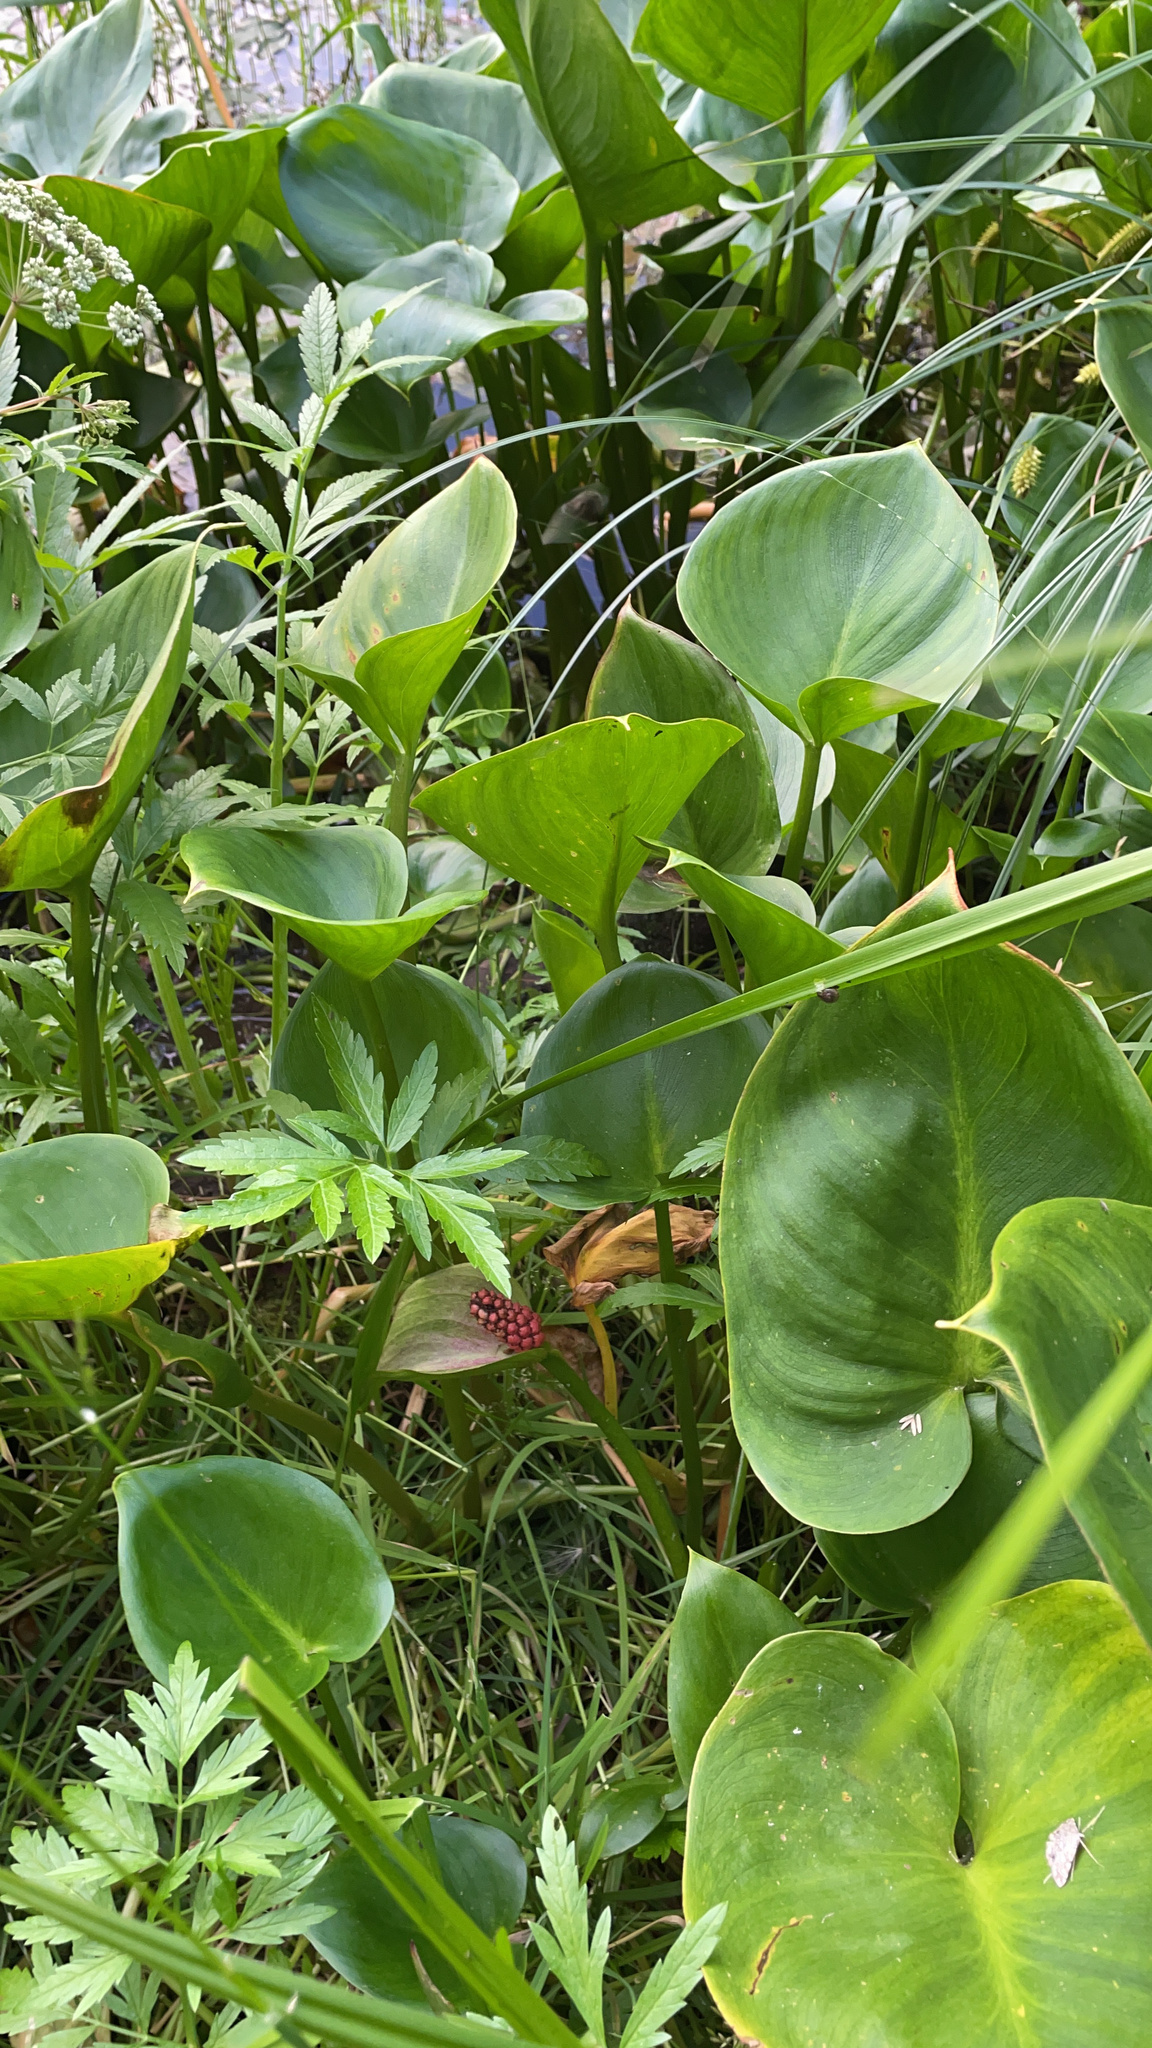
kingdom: Plantae
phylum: Tracheophyta
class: Liliopsida
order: Alismatales
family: Araceae
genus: Calla
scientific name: Calla palustris
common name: Bog arum
